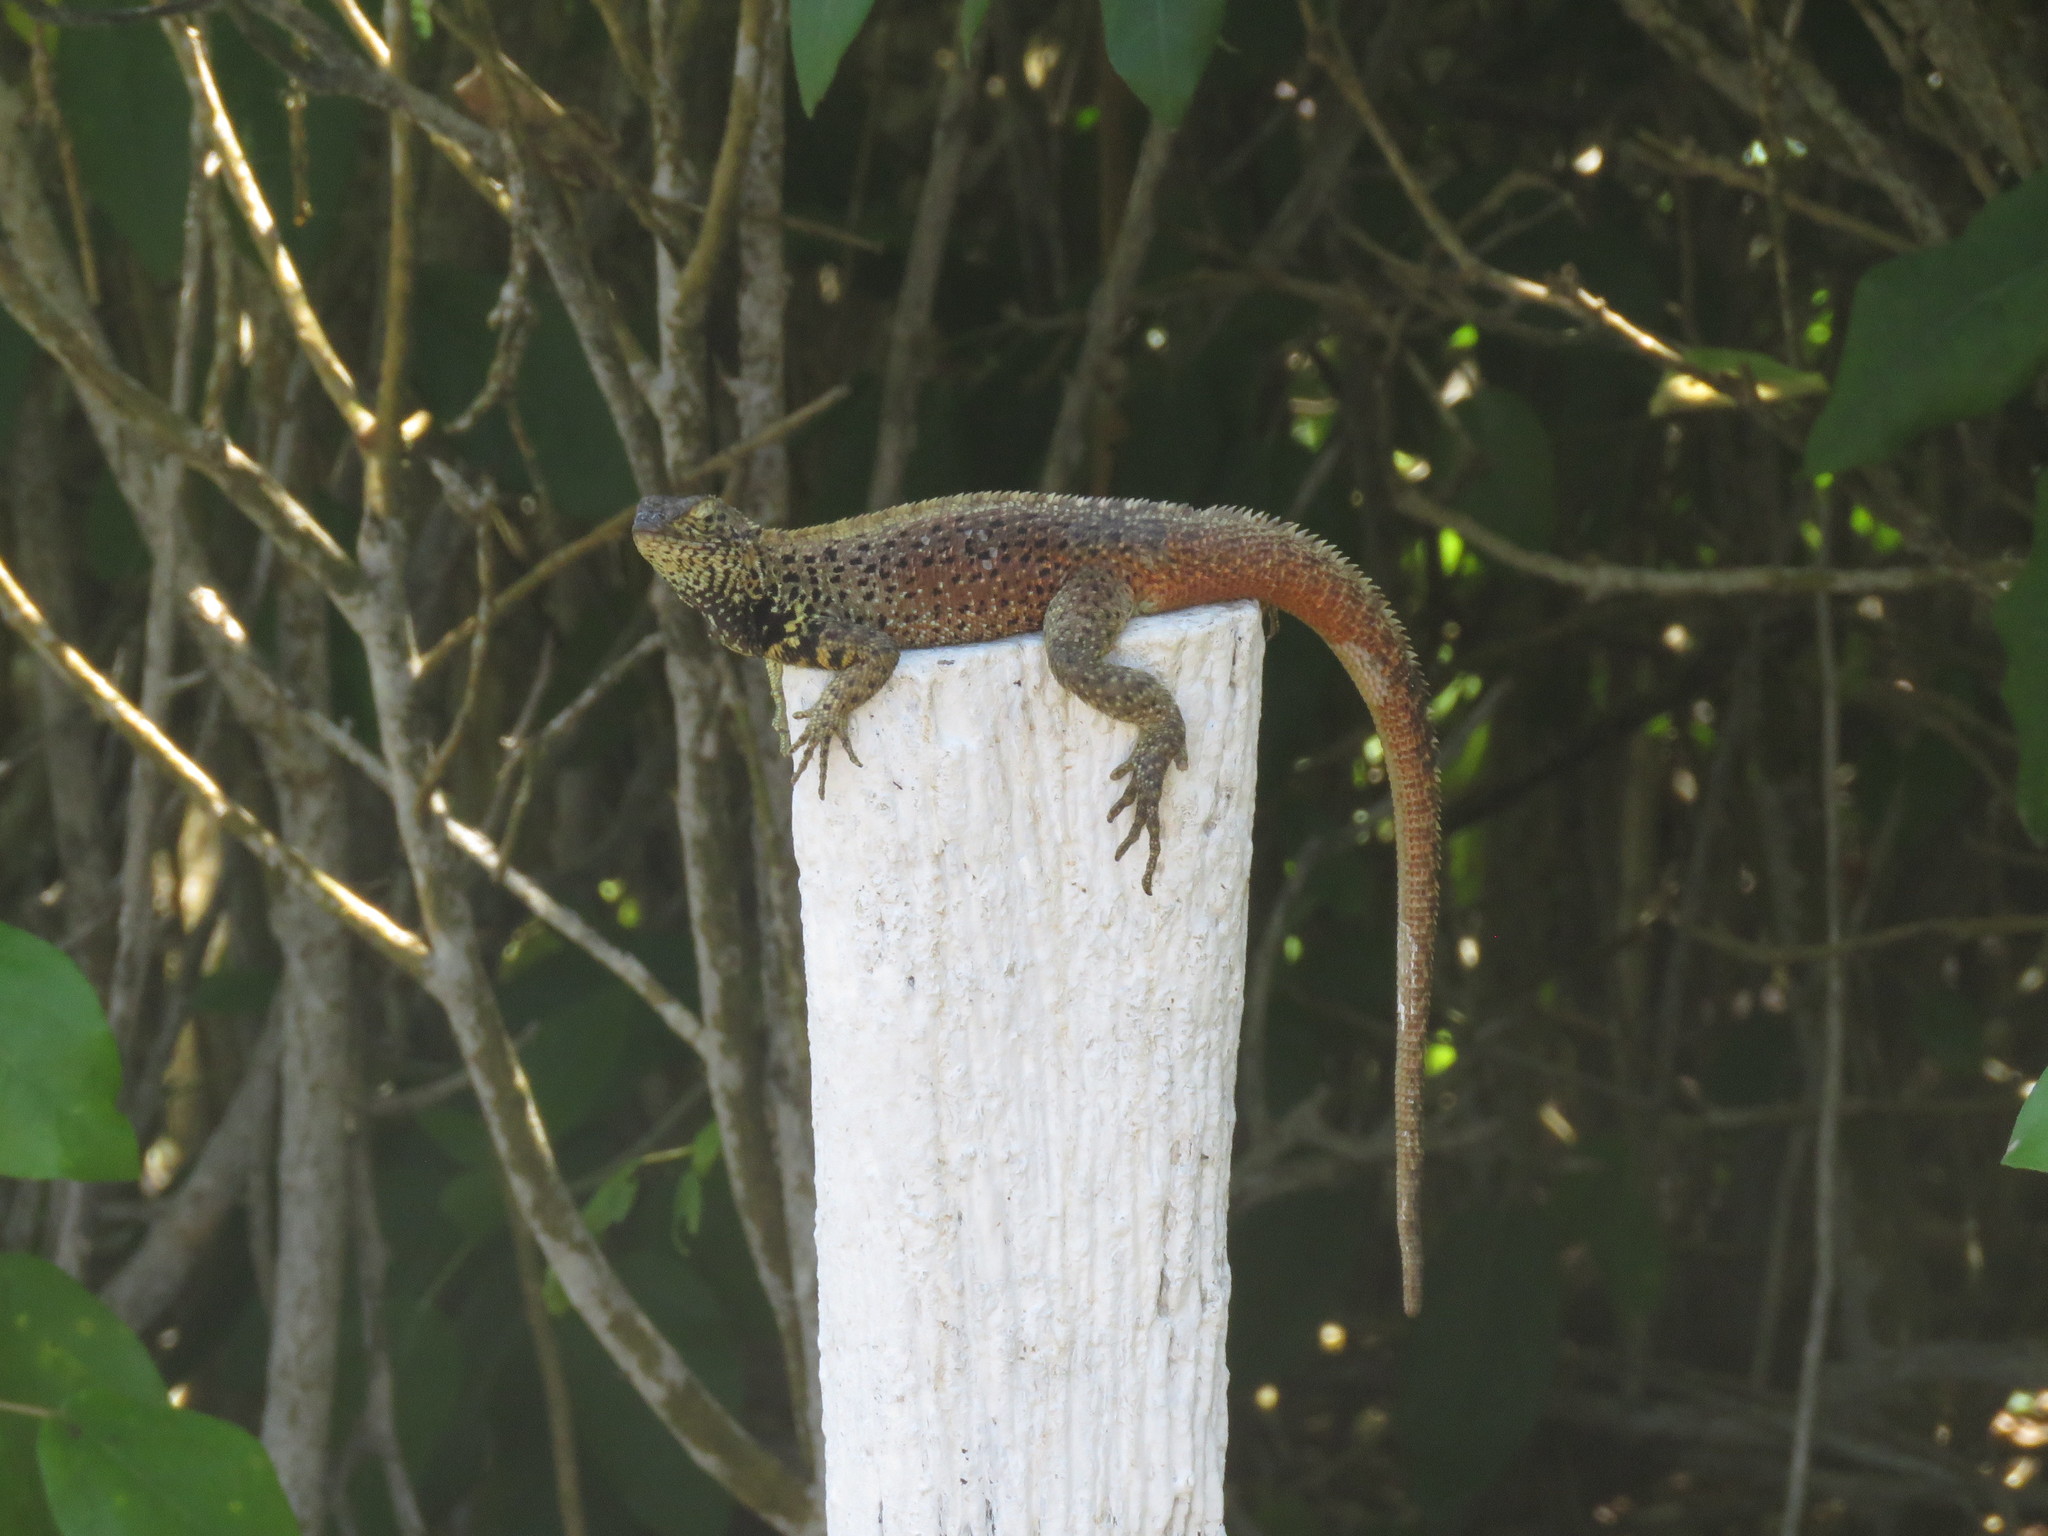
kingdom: Animalia
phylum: Chordata
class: Squamata
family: Tropiduridae
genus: Microlophus
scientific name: Microlophus delanonis
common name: Hood lava lizard
